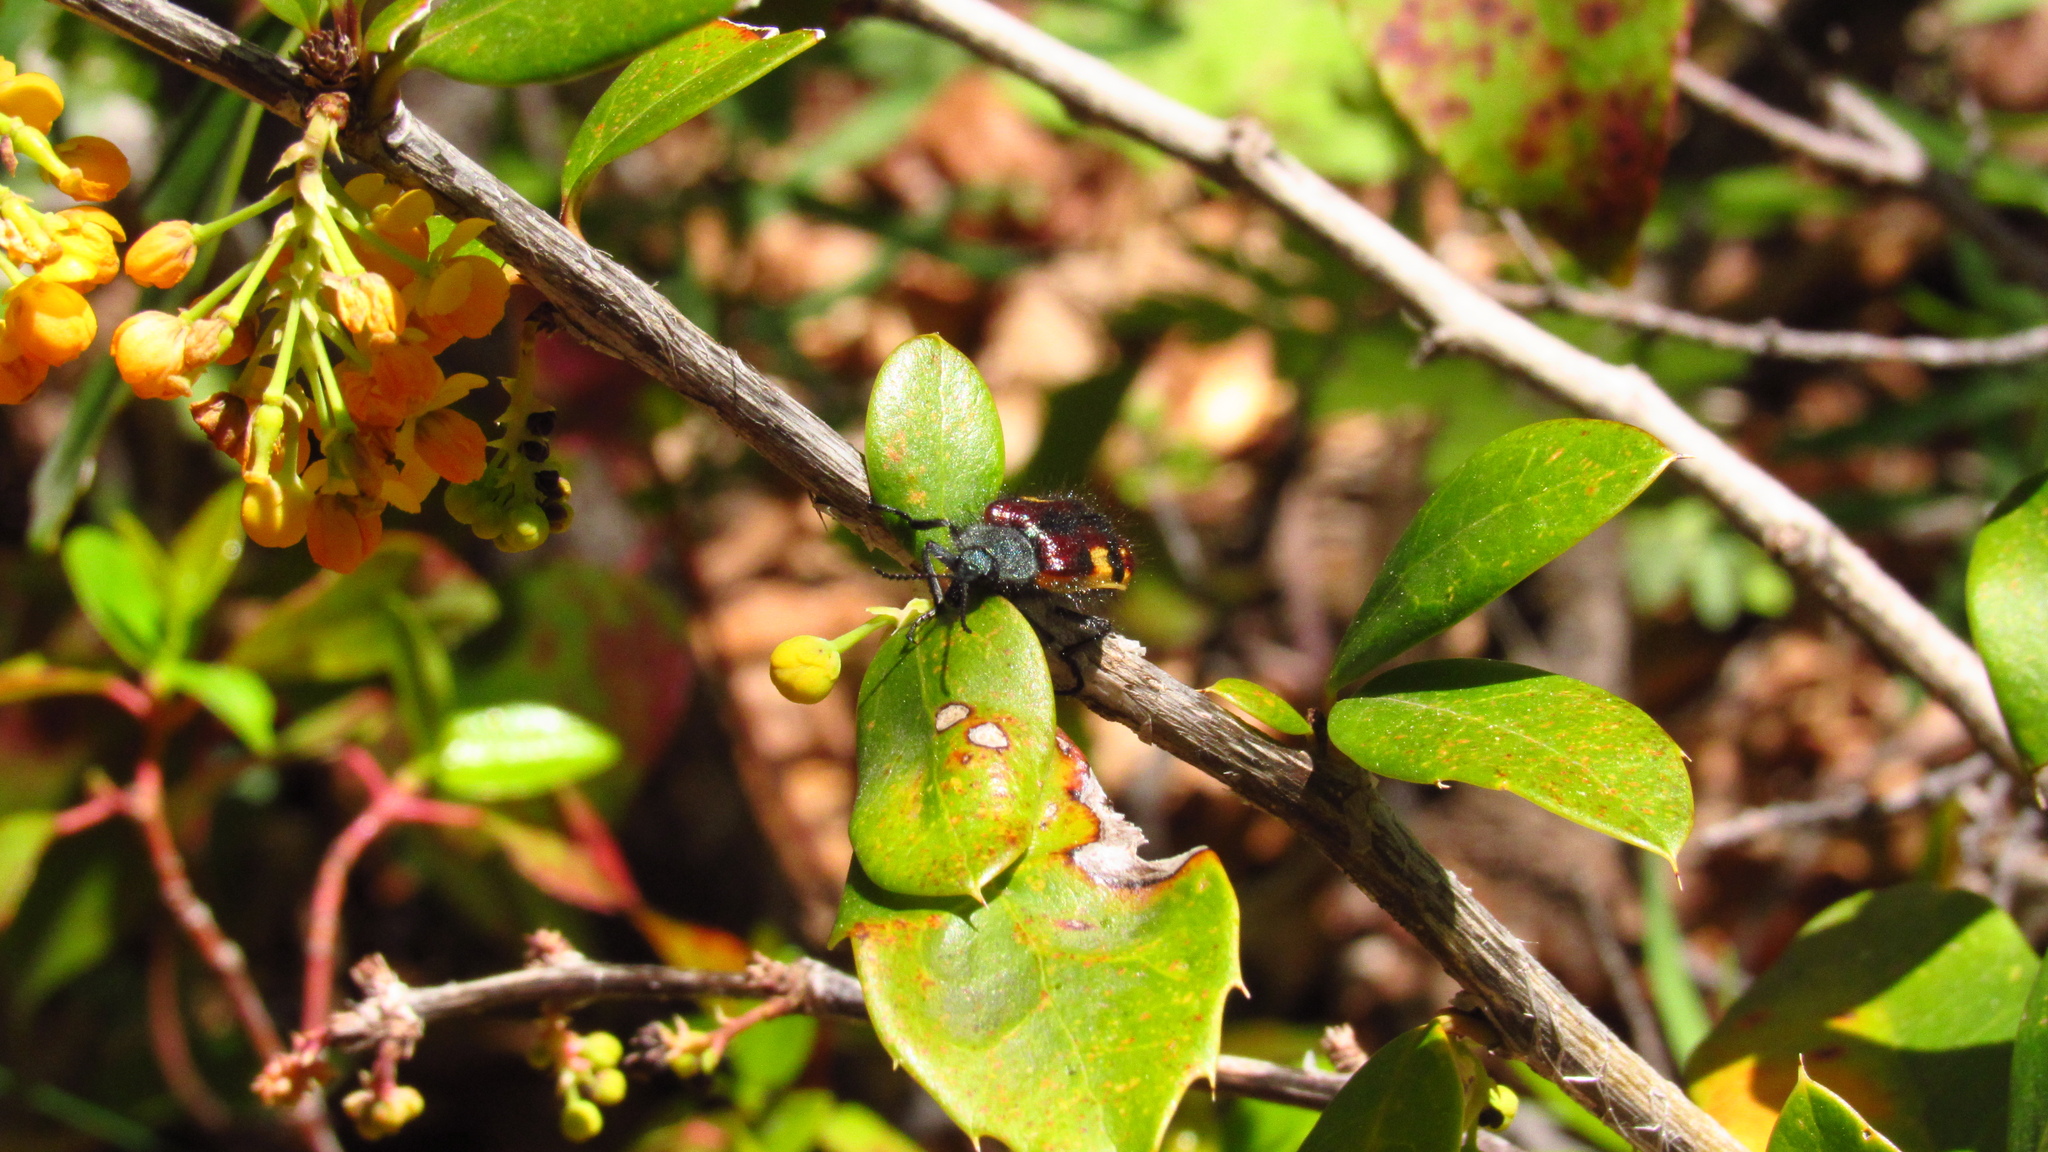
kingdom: Animalia
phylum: Arthropoda
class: Insecta
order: Coleoptera
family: Melyridae
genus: Astylus
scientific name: Astylus
